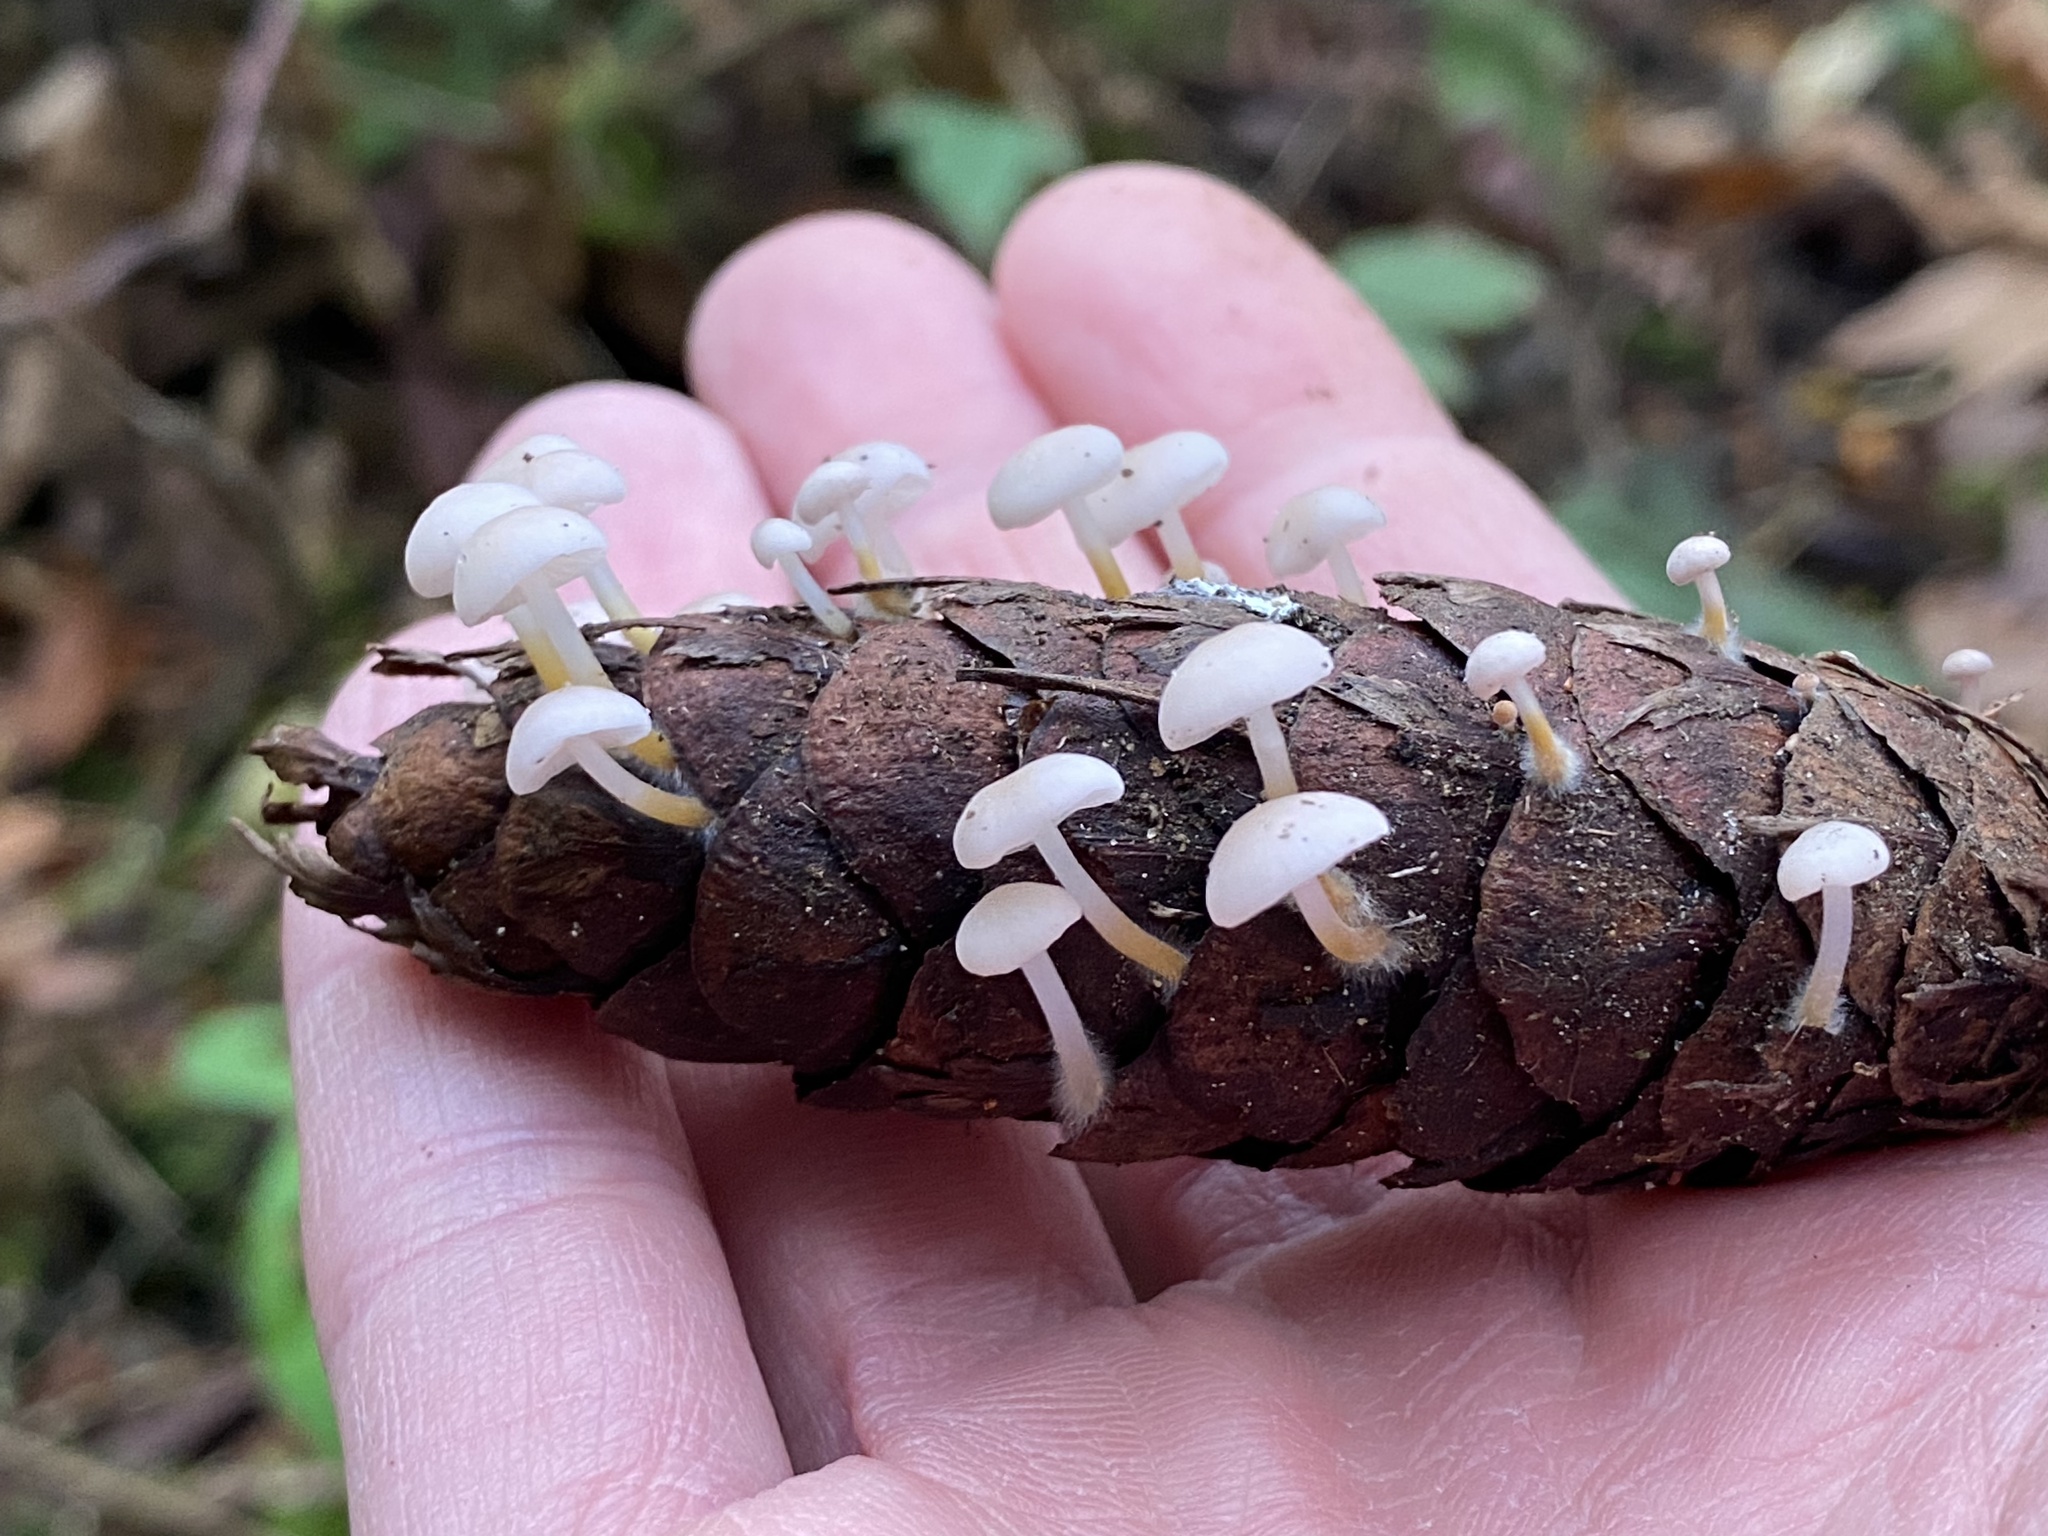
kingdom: Fungi
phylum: Basidiomycota
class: Agaricomycetes
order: Agaricales
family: Physalacriaceae
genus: Strobilurus
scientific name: Strobilurus trullisatus
